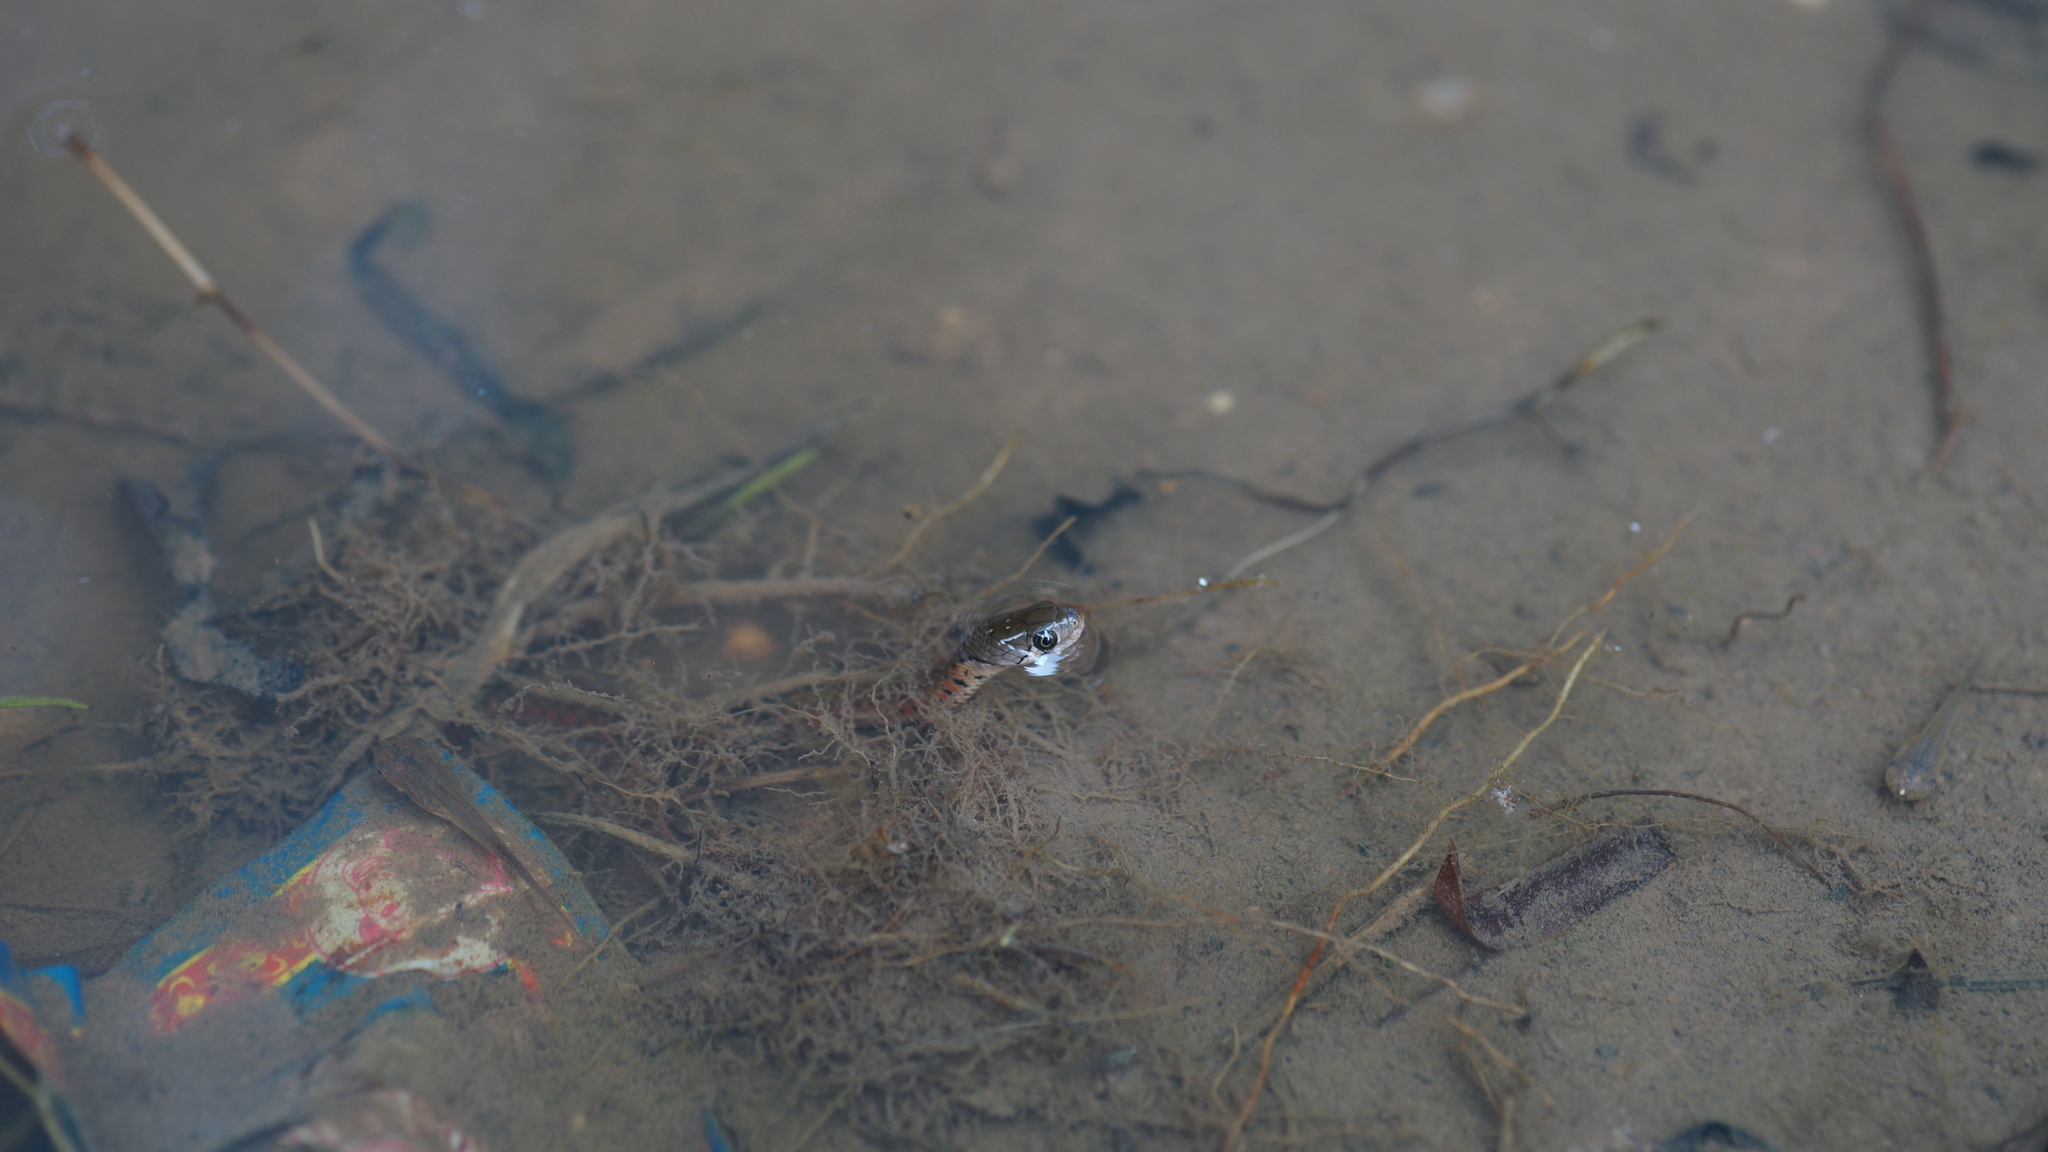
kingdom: Animalia
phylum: Chordata
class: Squamata
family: Colubridae
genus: Fowlea
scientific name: Fowlea flavipunctatus
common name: Yellow-spotted keelback
